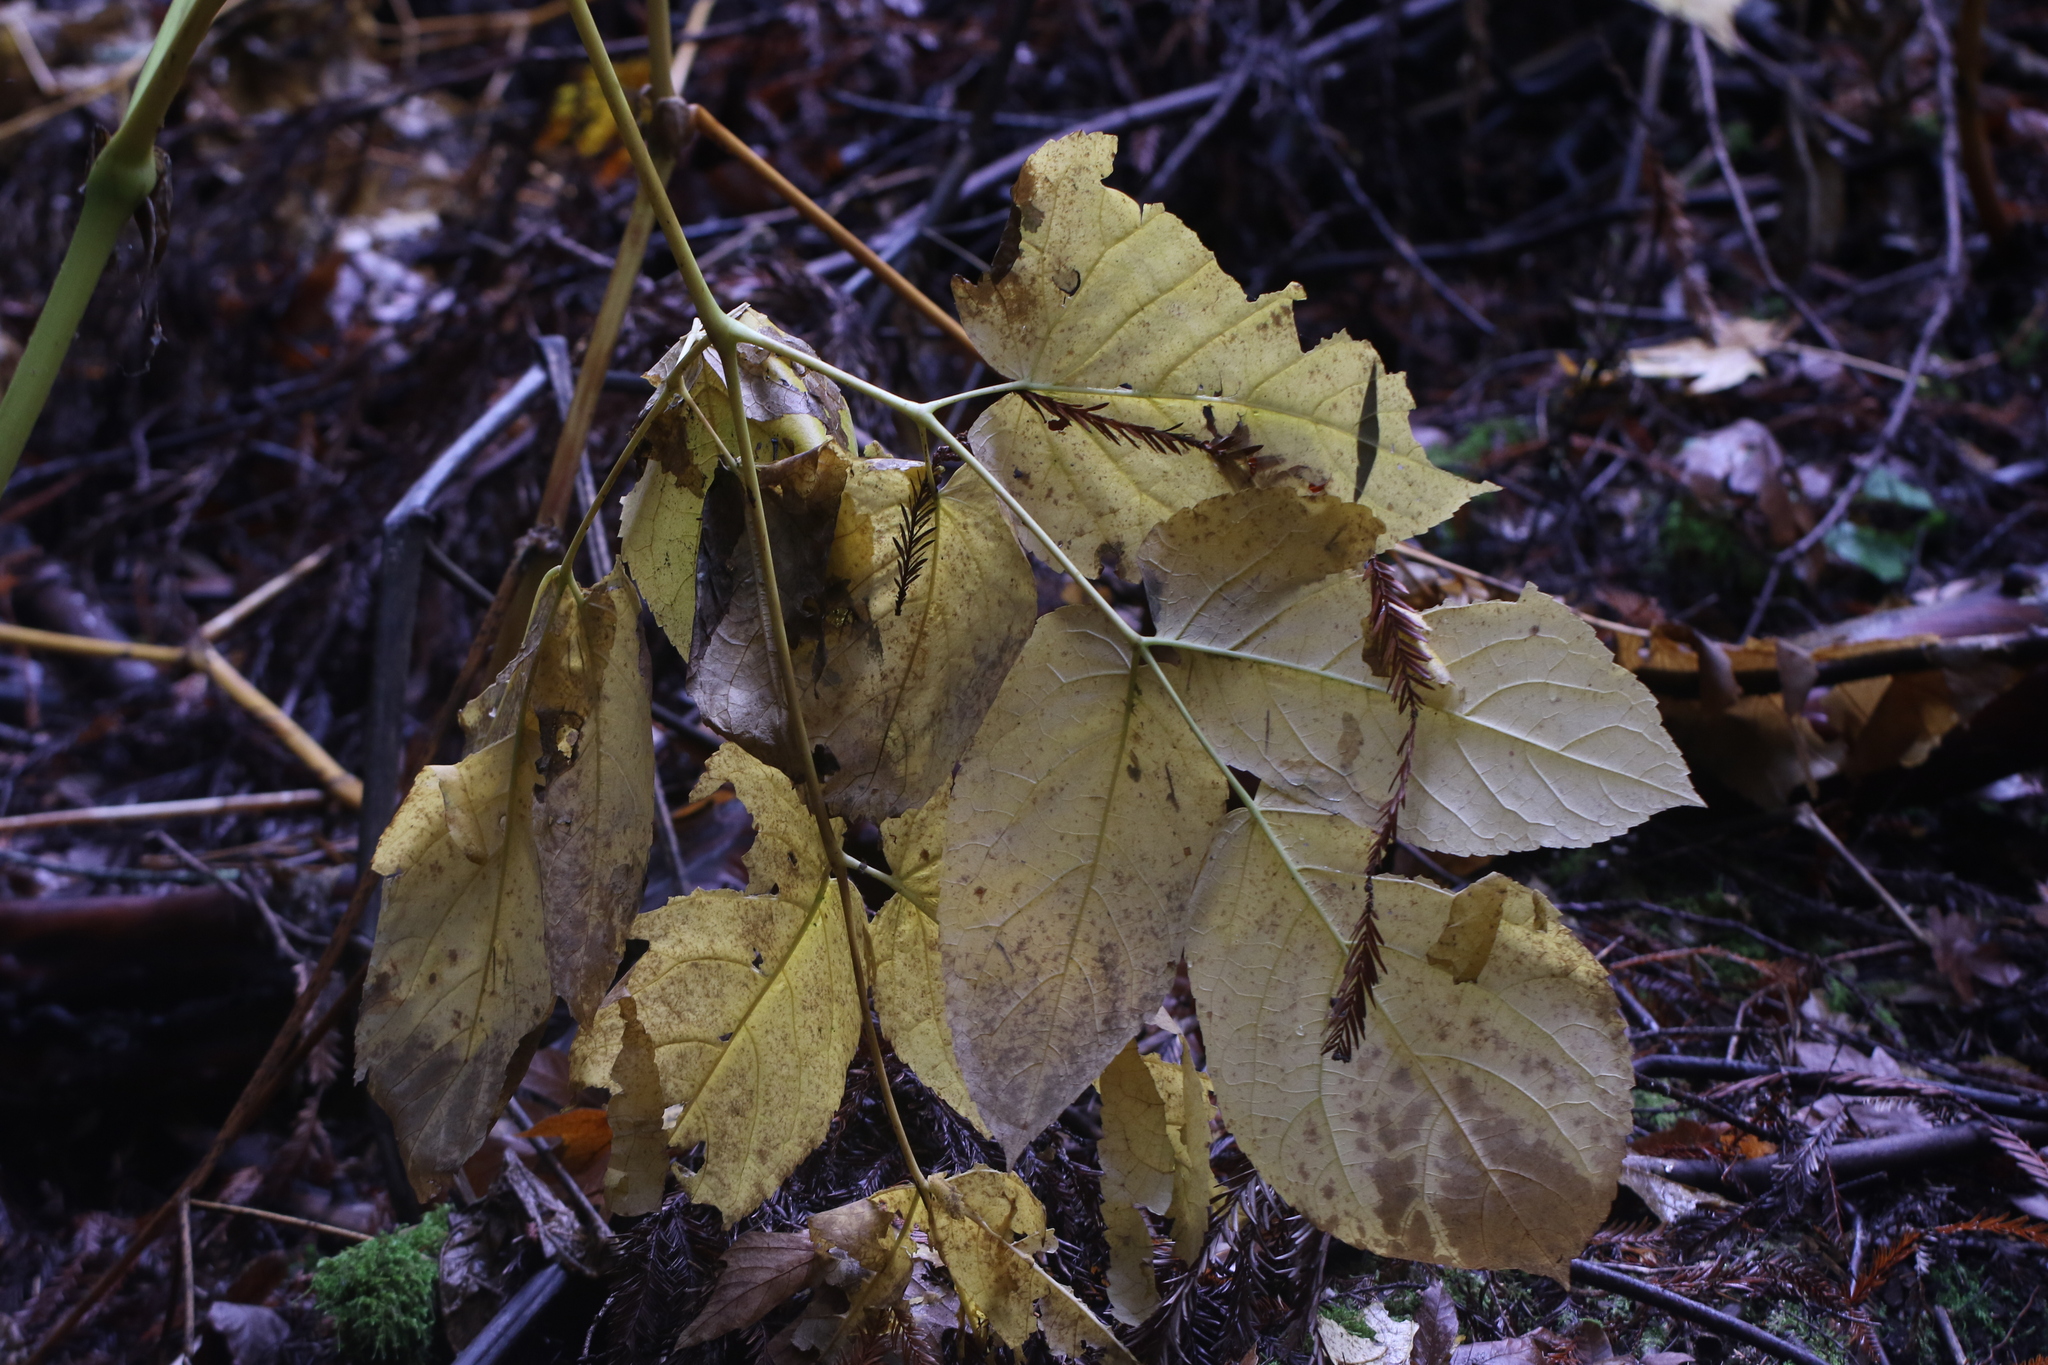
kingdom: Plantae
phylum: Tracheophyta
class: Magnoliopsida
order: Apiales
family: Araliaceae
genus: Aralia
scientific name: Aralia californica
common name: California-ginseng
